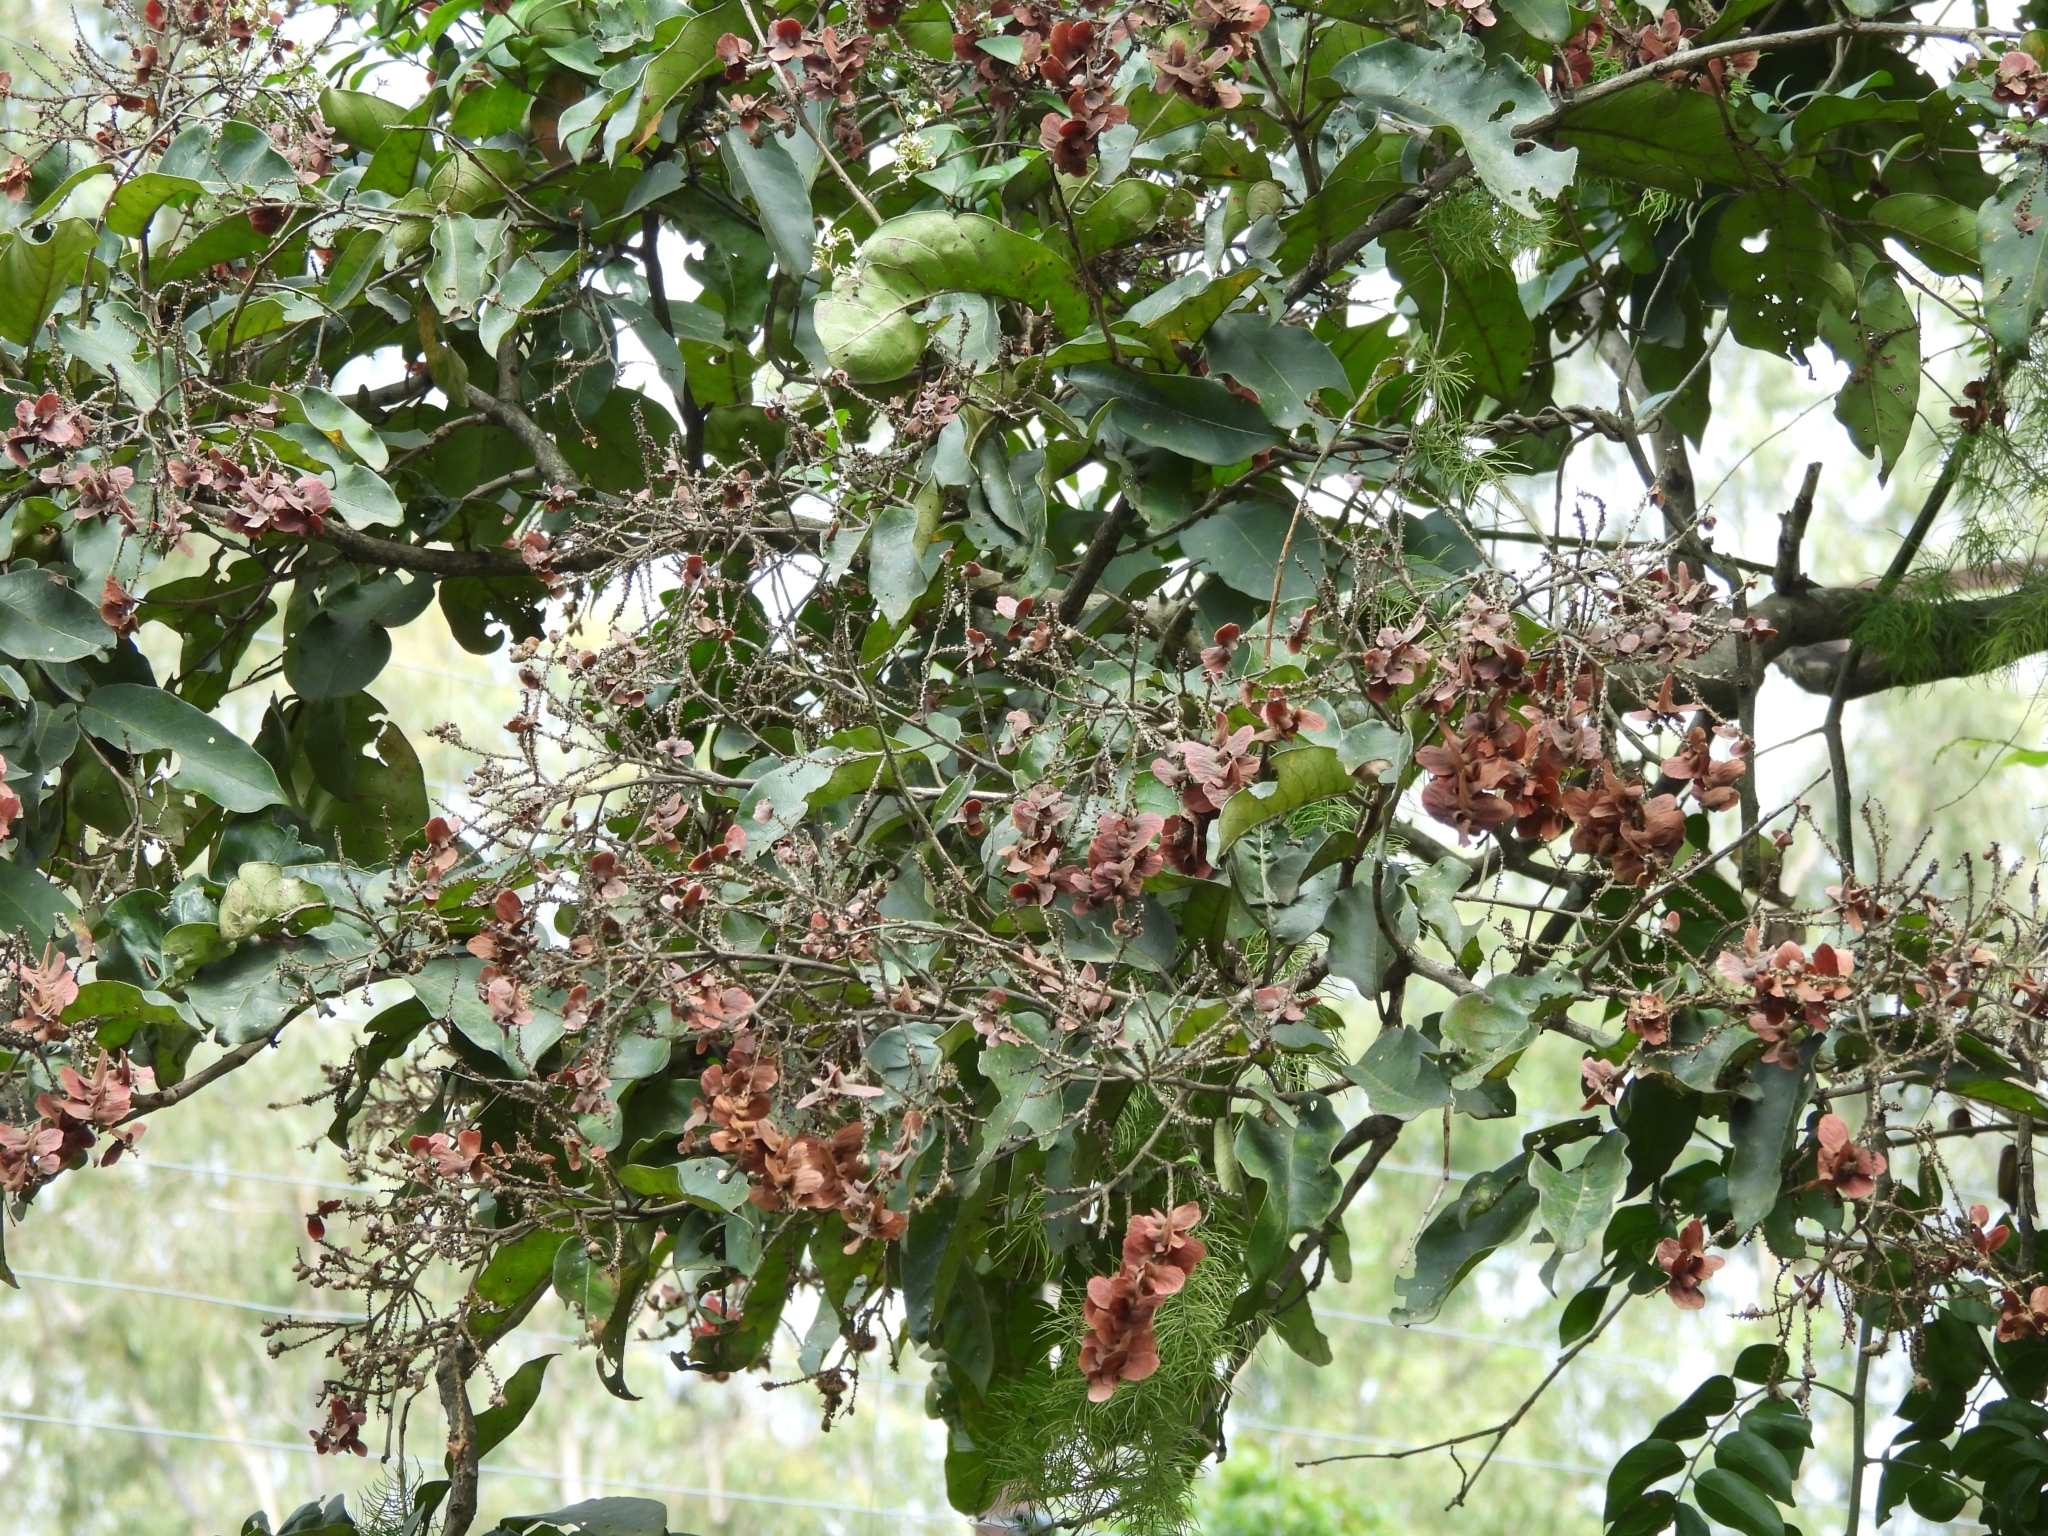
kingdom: Plantae
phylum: Tracheophyta
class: Magnoliopsida
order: Myrtales
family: Combretaceae
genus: Terminalia
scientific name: Terminalia paniculata
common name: Flowering murdah
